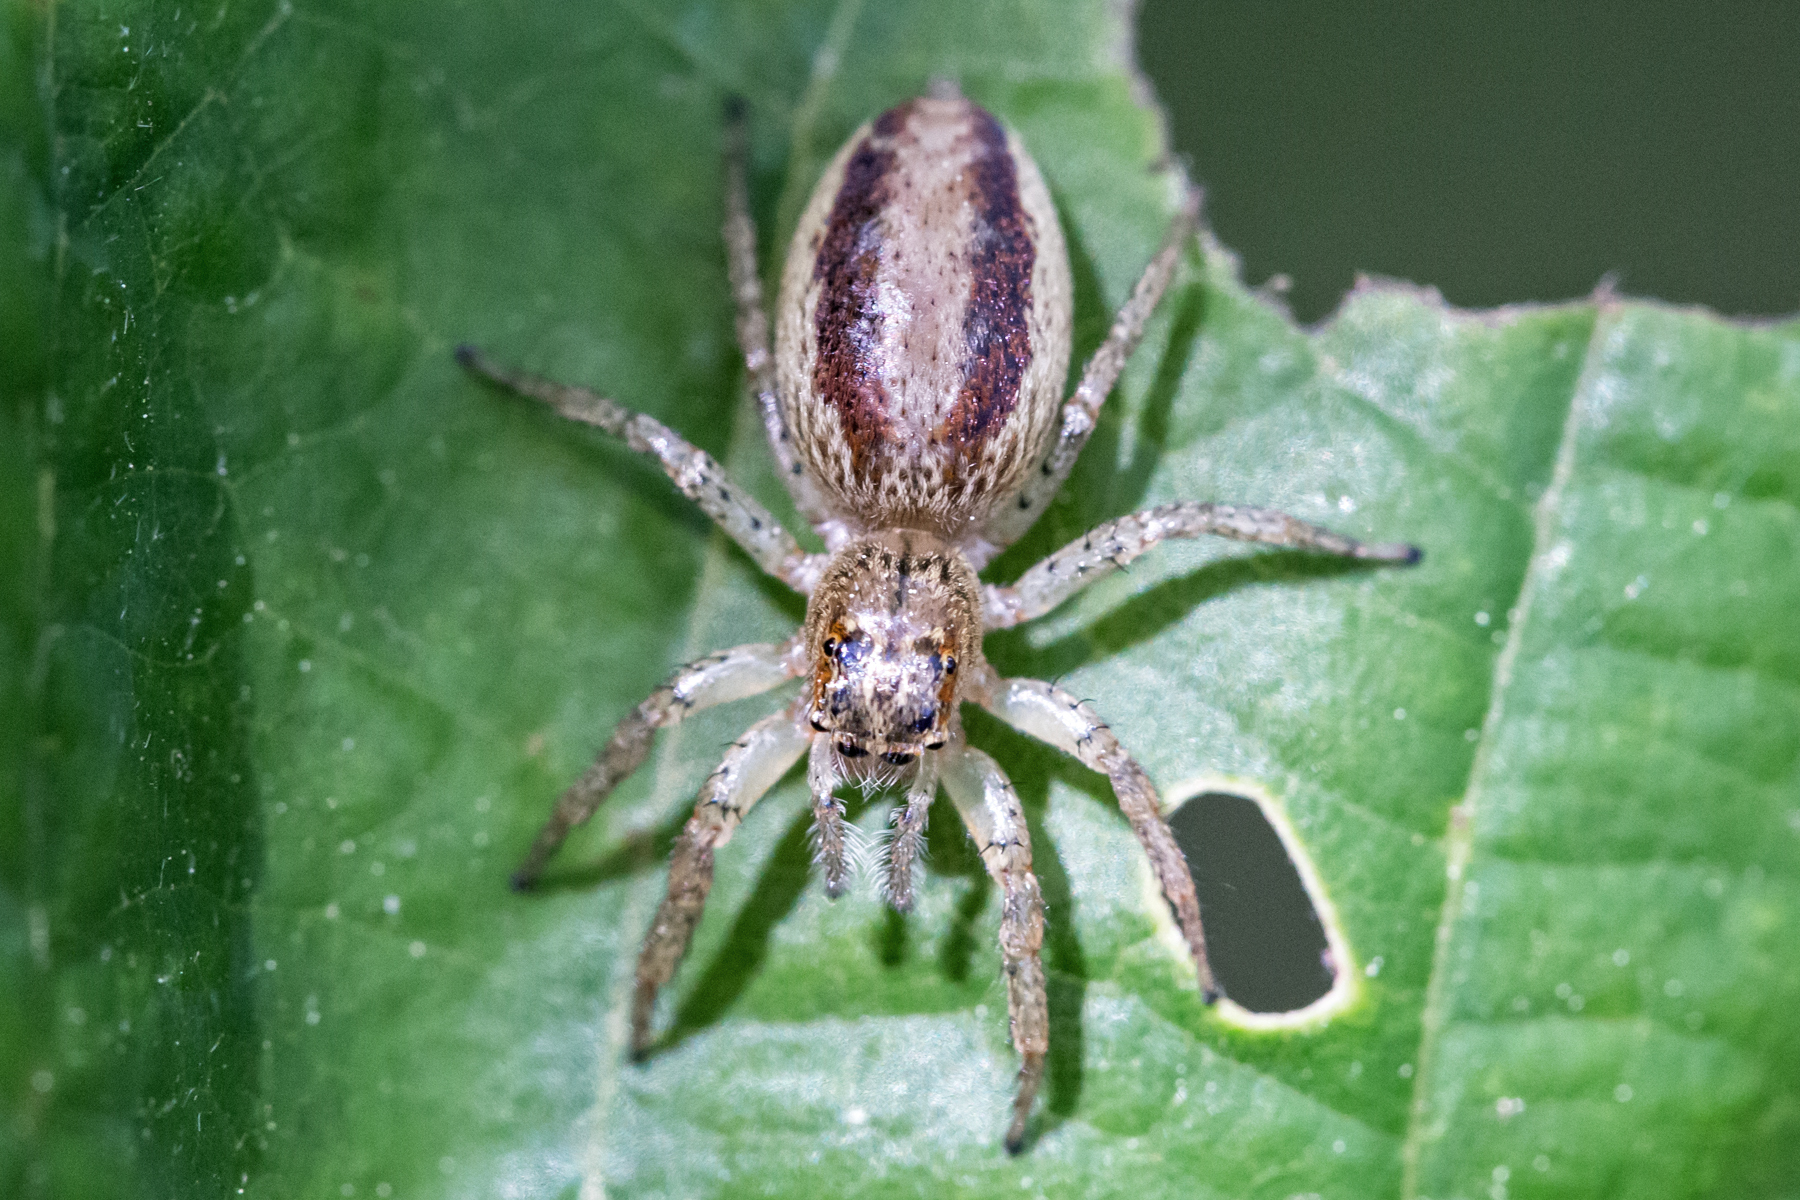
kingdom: Animalia
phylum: Arthropoda
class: Arachnida
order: Araneae
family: Salticidae
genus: Maevia
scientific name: Maevia inclemens
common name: Dimorphic jumper
